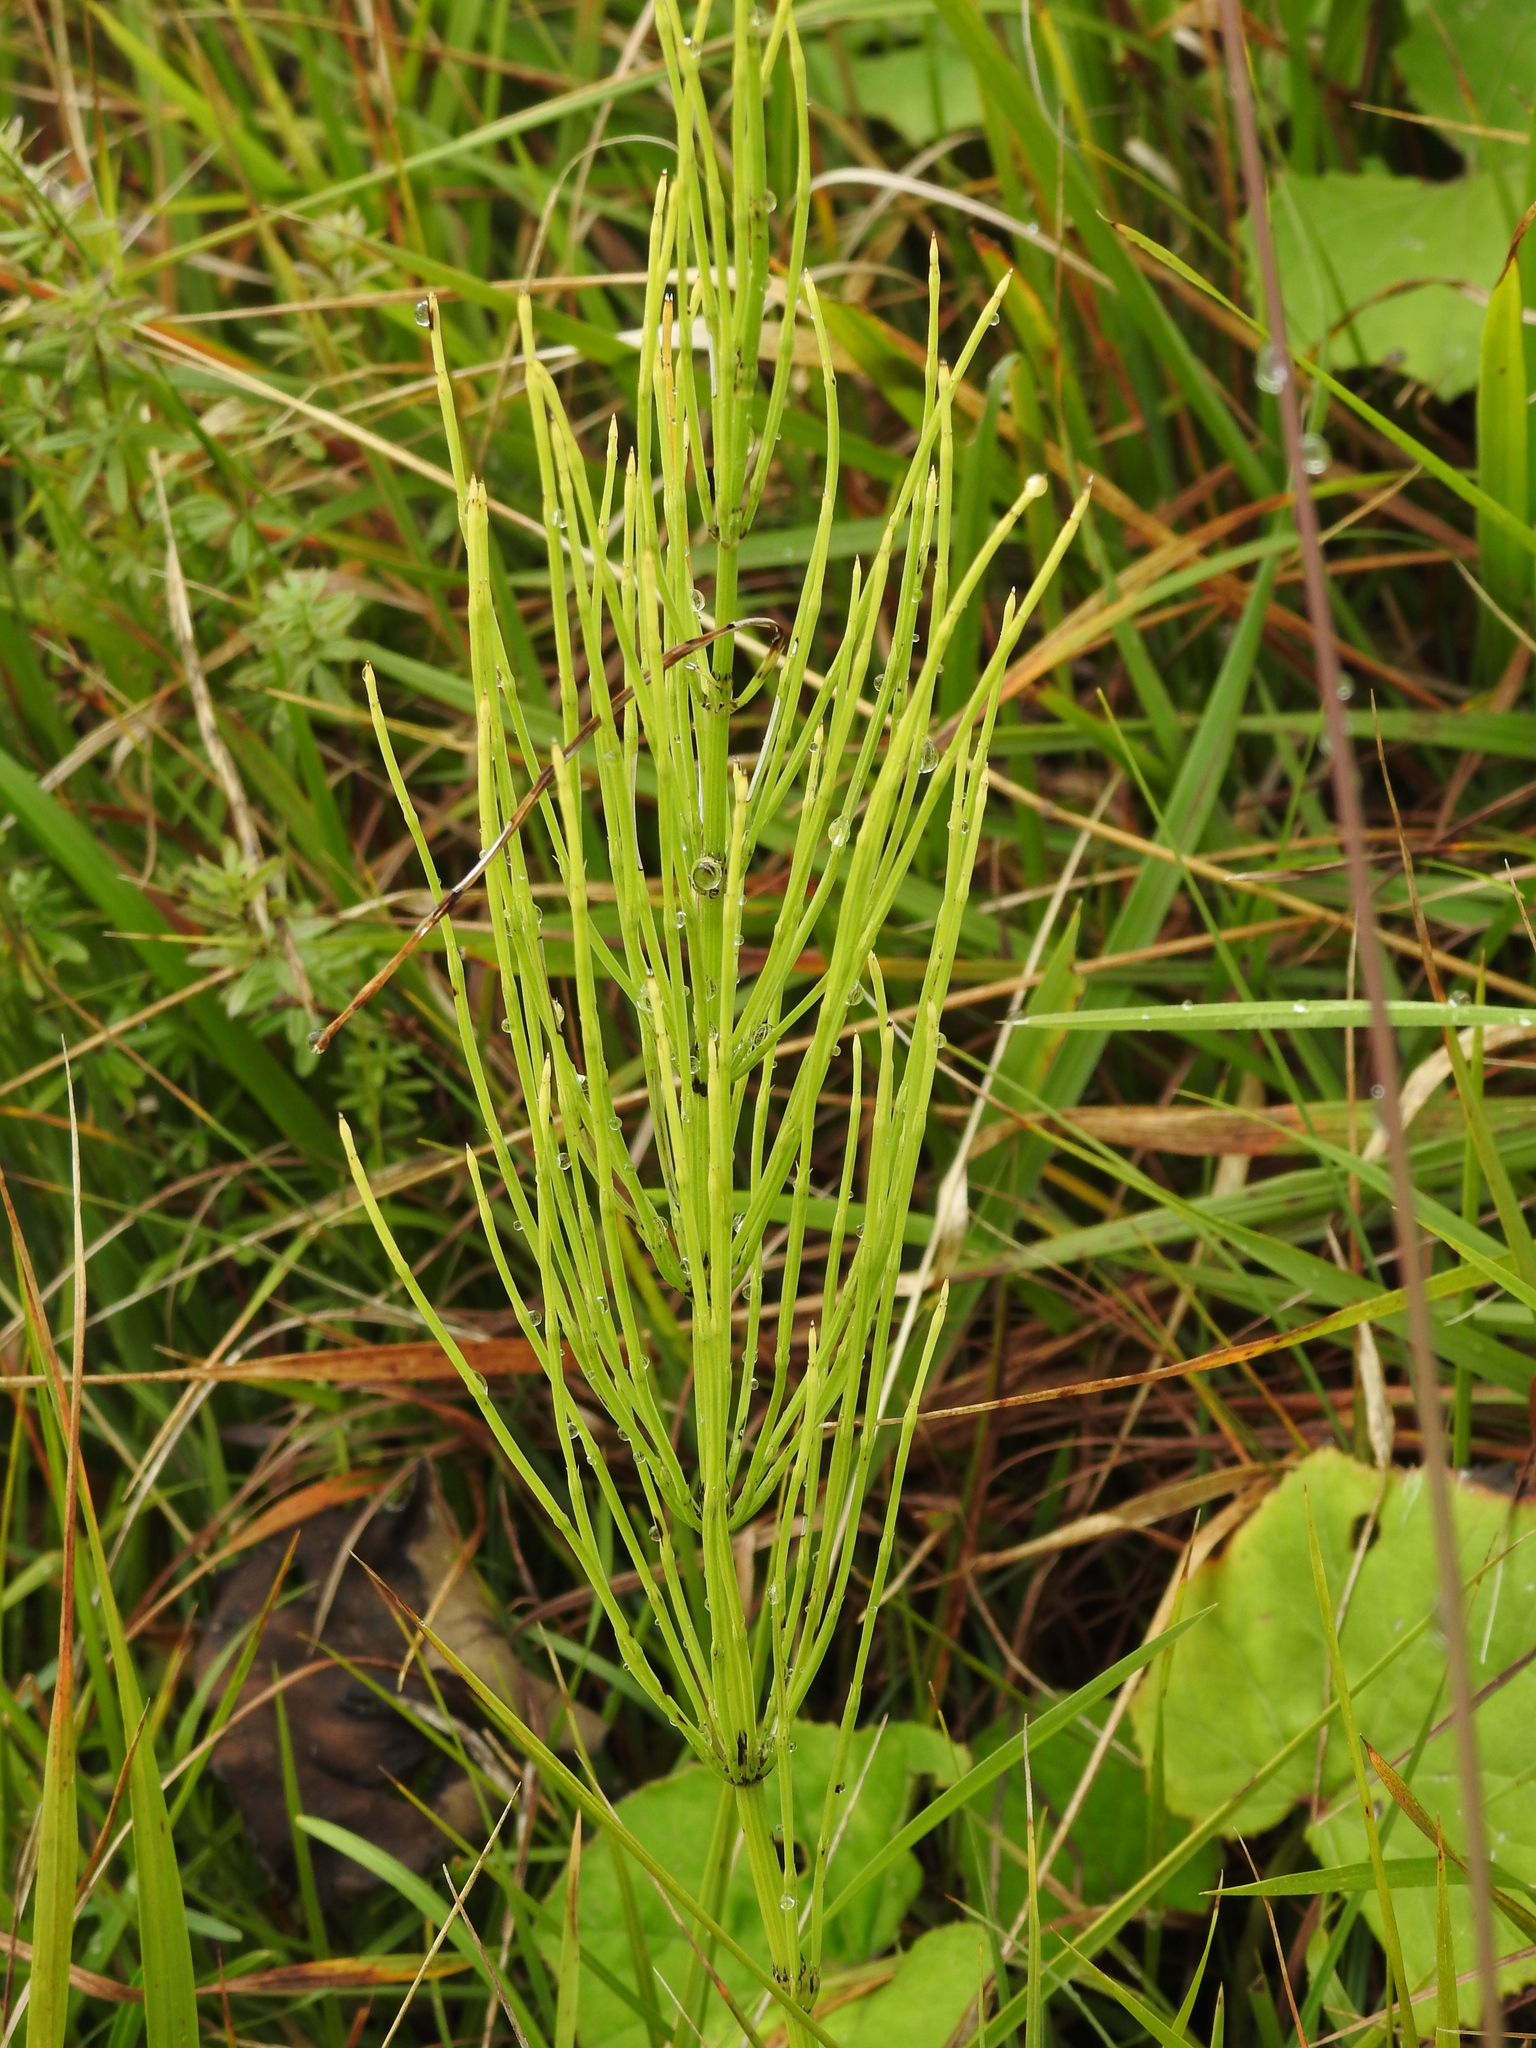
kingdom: Plantae
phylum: Tracheophyta
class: Polypodiopsida
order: Equisetales
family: Equisetaceae
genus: Equisetum
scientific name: Equisetum arvense
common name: Field horsetail
